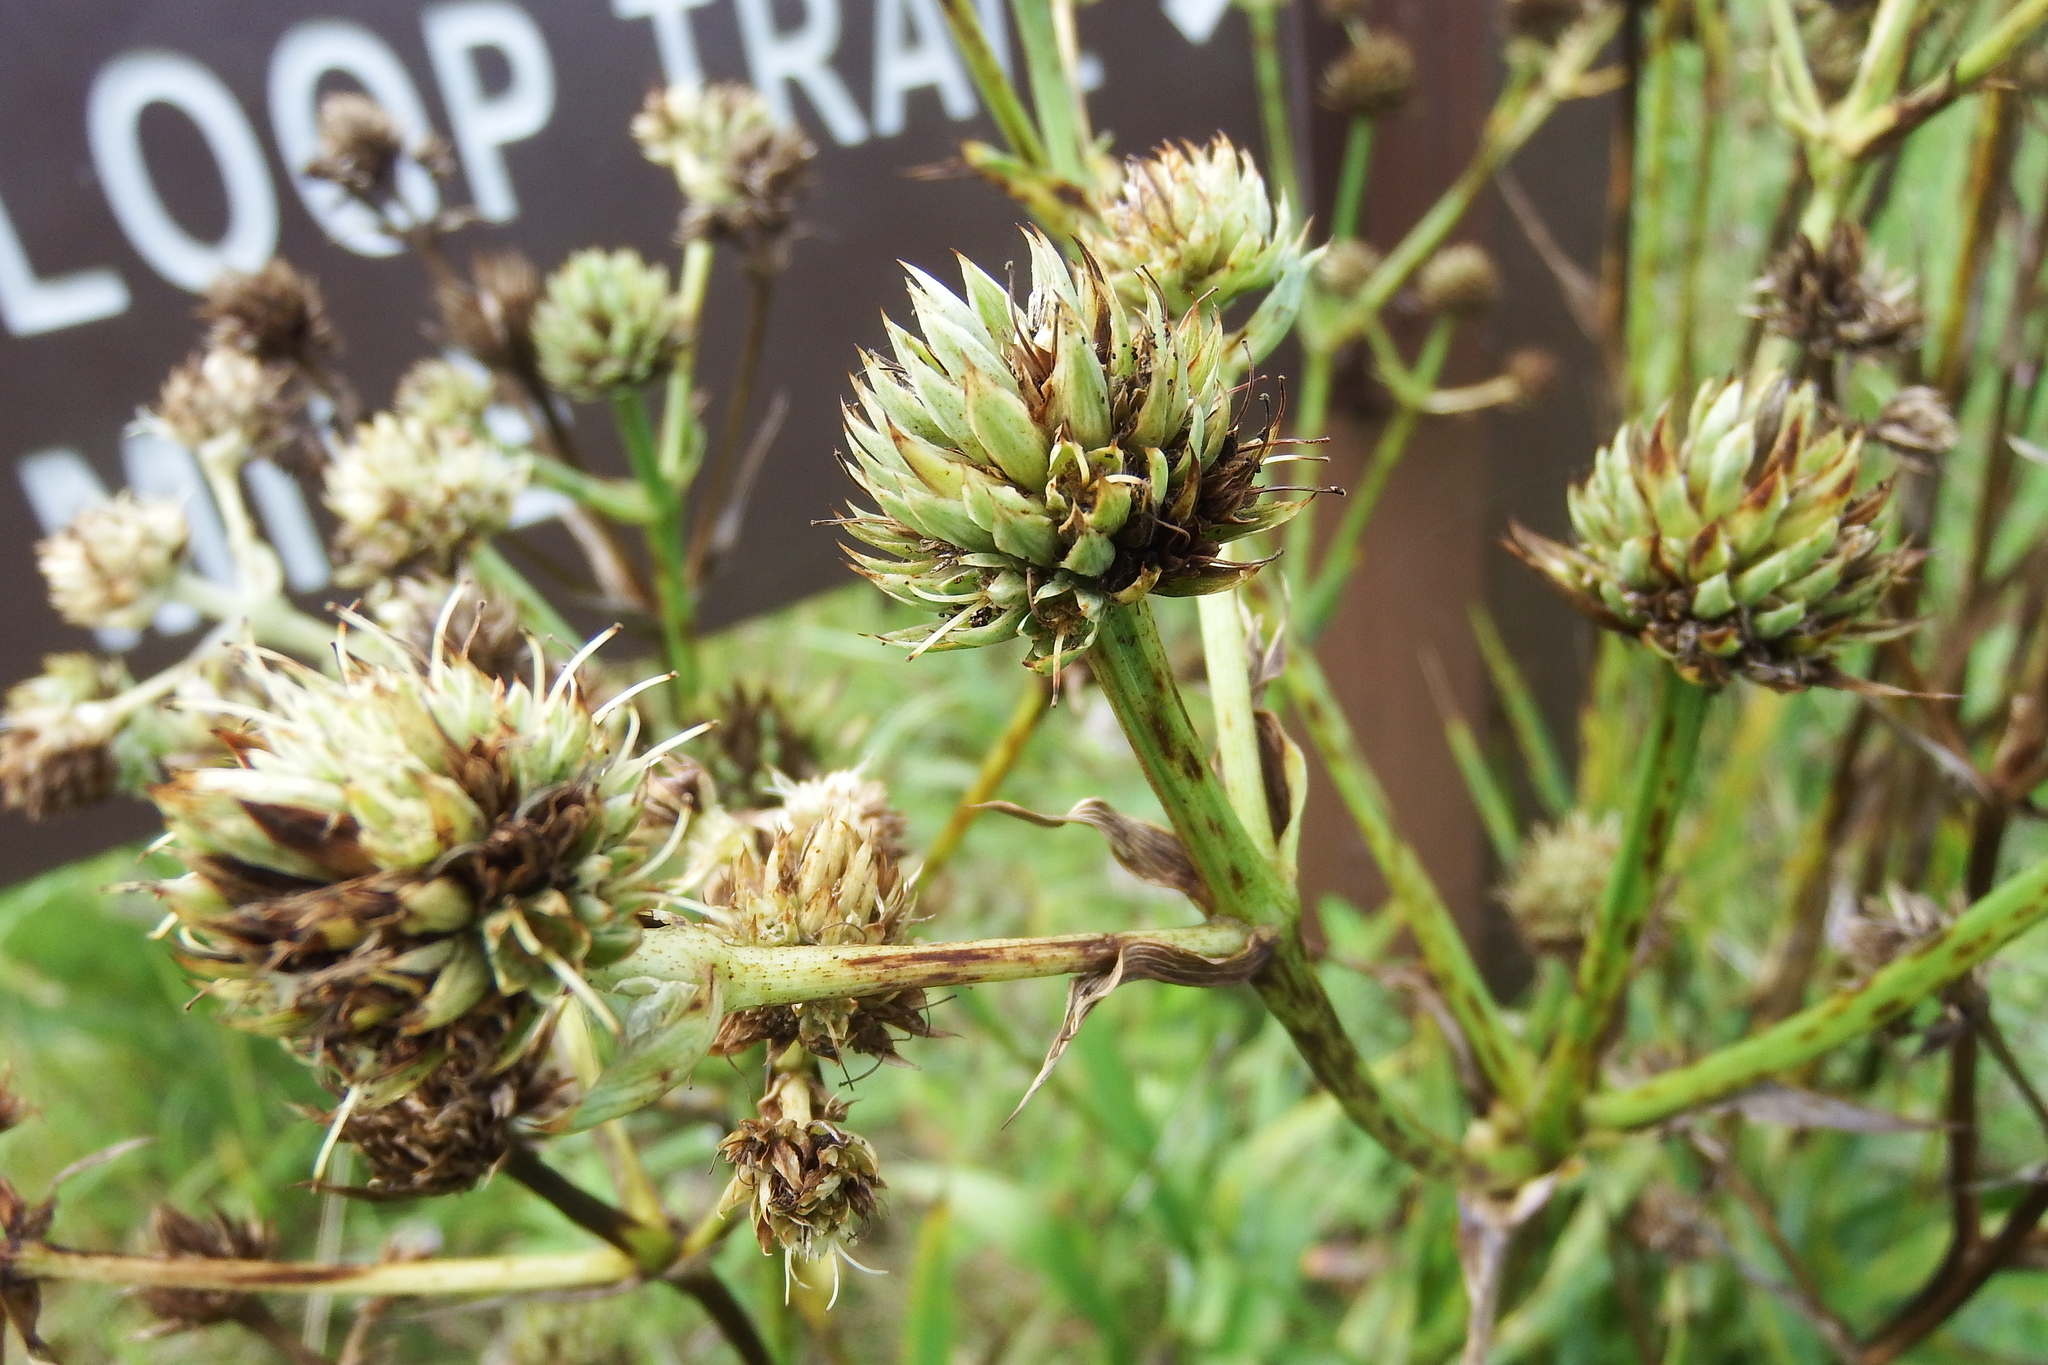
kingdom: Plantae
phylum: Tracheophyta
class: Magnoliopsida
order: Apiales
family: Apiaceae
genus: Eryngium
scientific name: Eryngium yuccifolium
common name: Button eryngo
